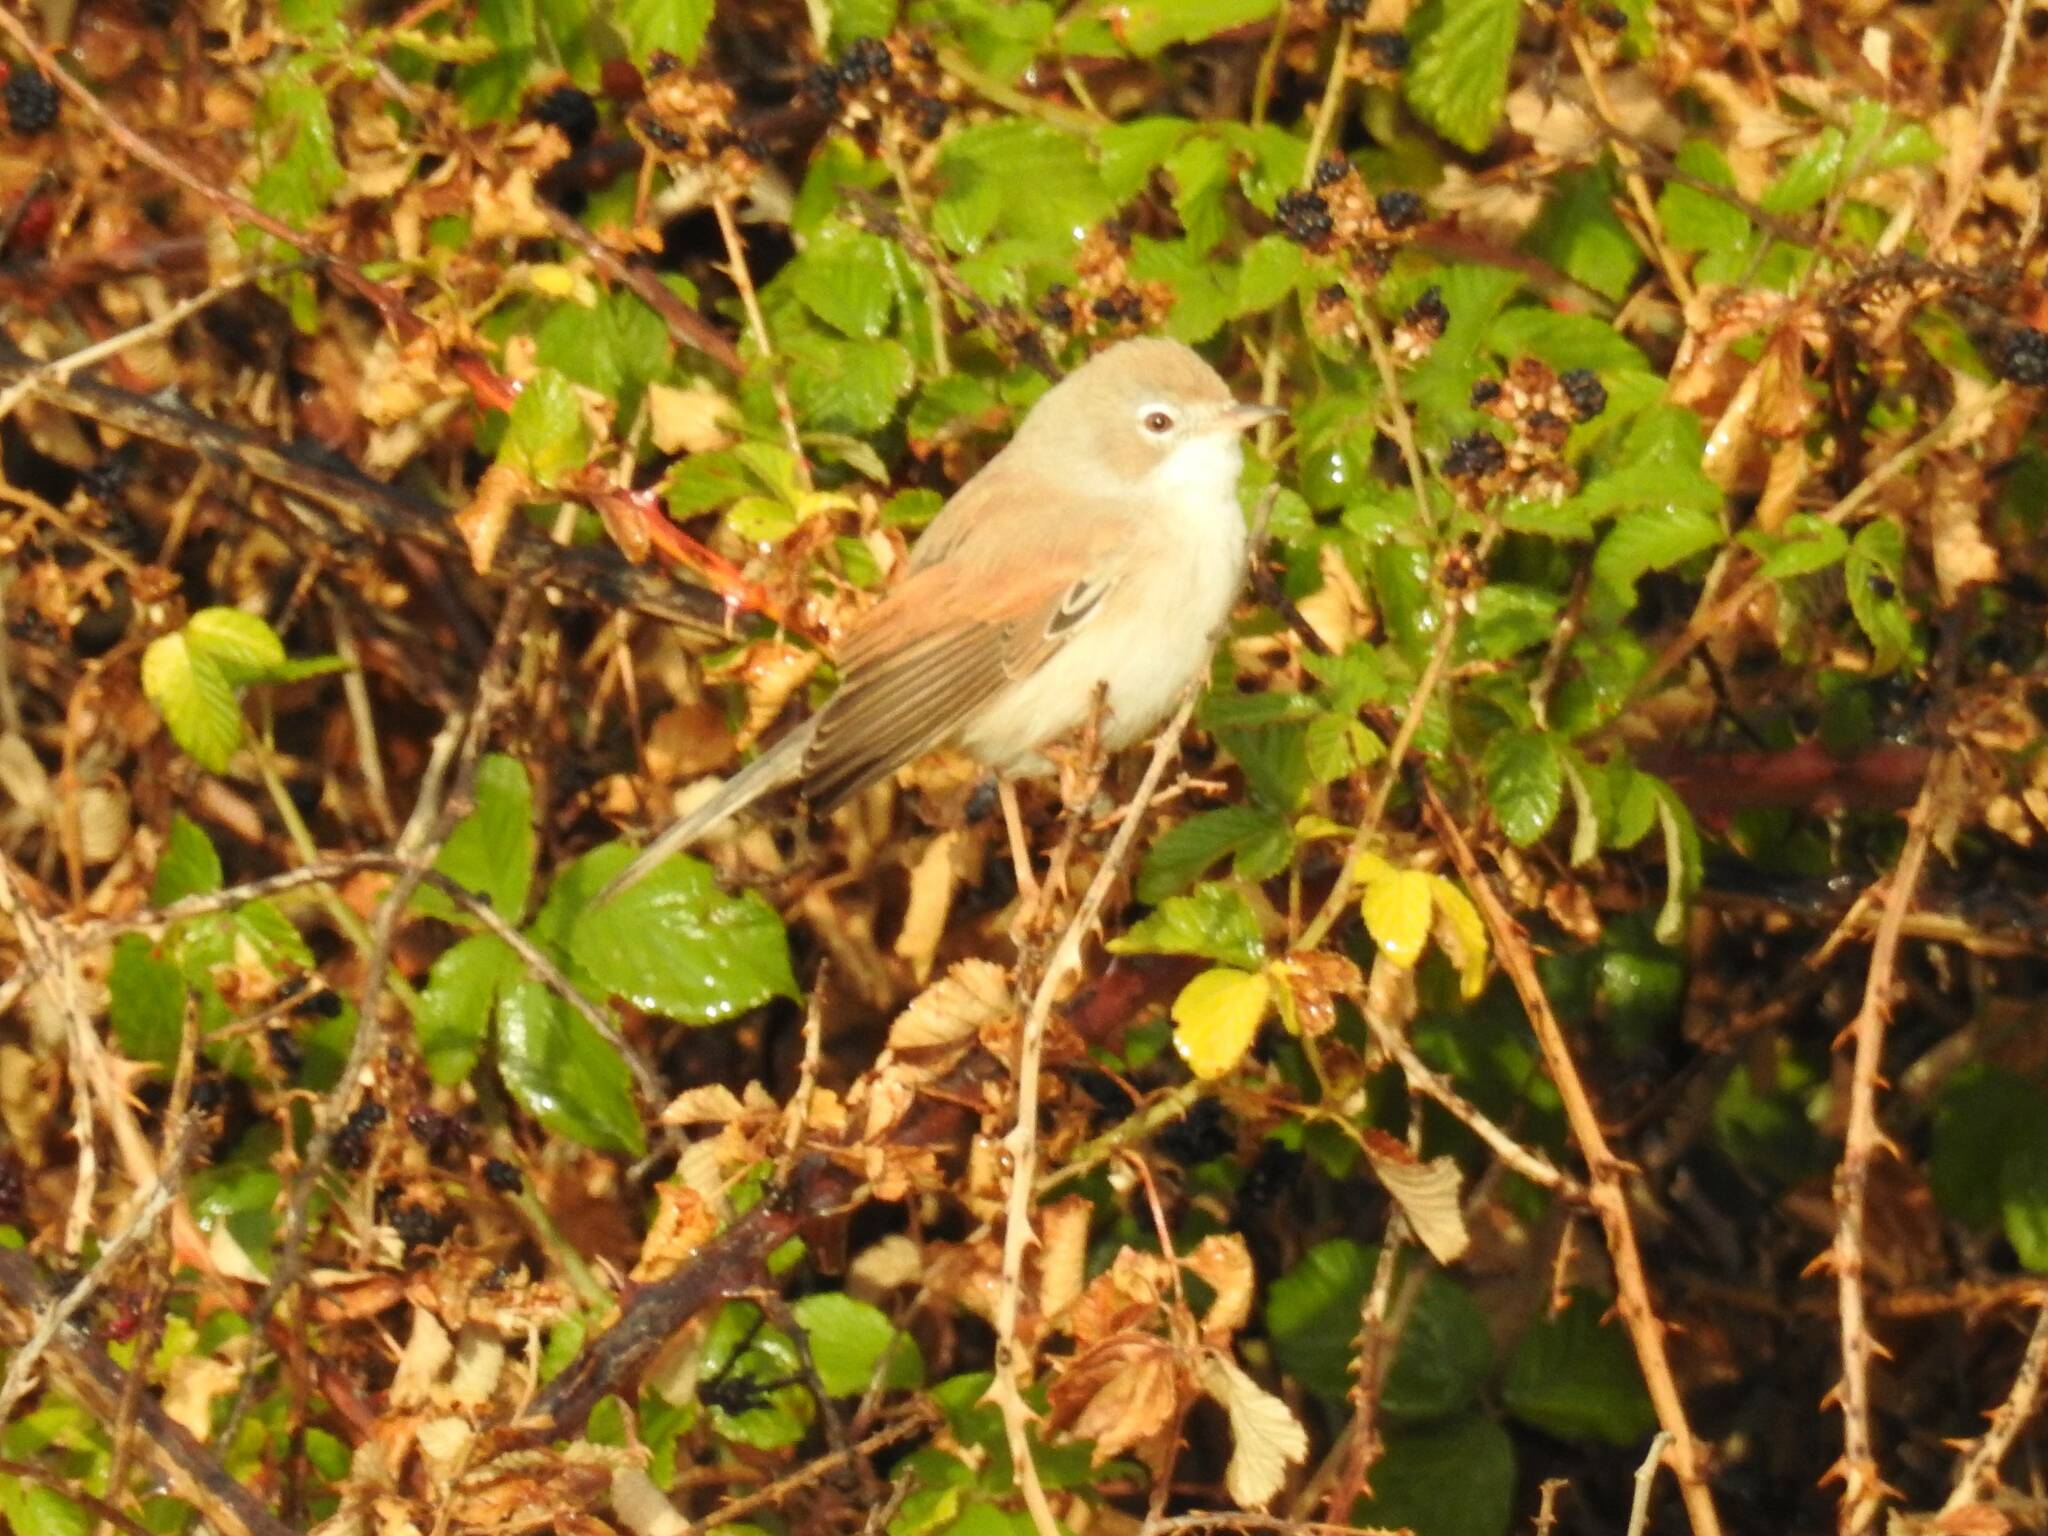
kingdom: Animalia
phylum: Chordata
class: Aves
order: Passeriformes
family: Sylviidae
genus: Sylvia
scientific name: Sylvia communis
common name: Common whitethroat
